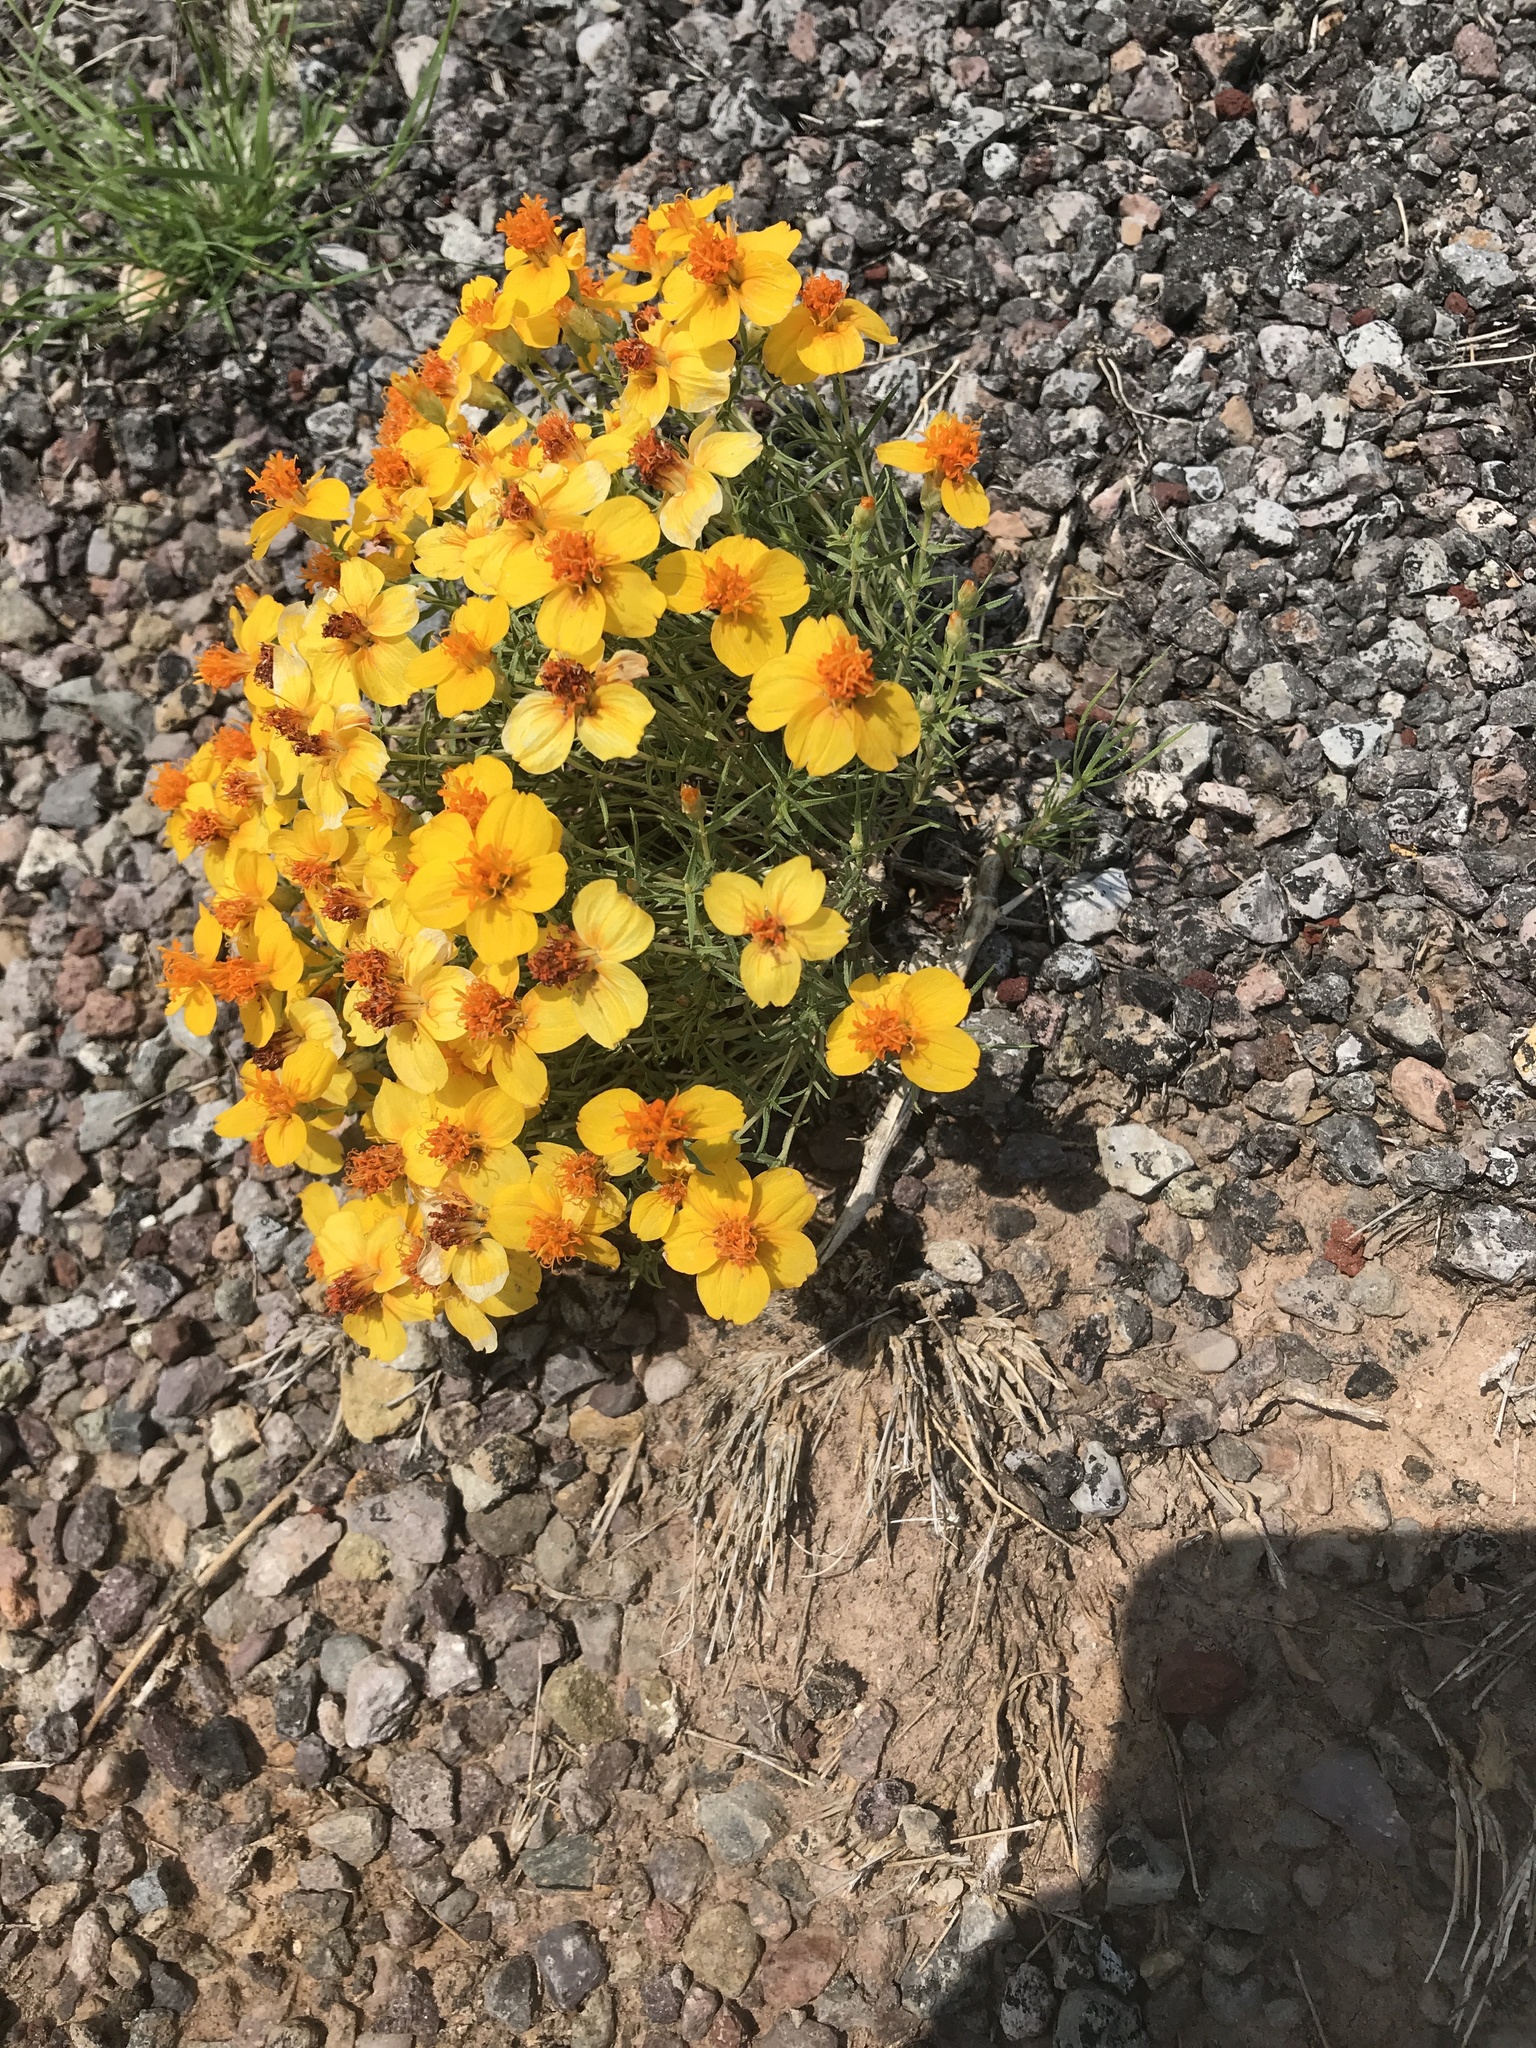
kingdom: Plantae
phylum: Tracheophyta
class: Magnoliopsida
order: Asterales
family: Asteraceae
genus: Zinnia
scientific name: Zinnia grandiflora
